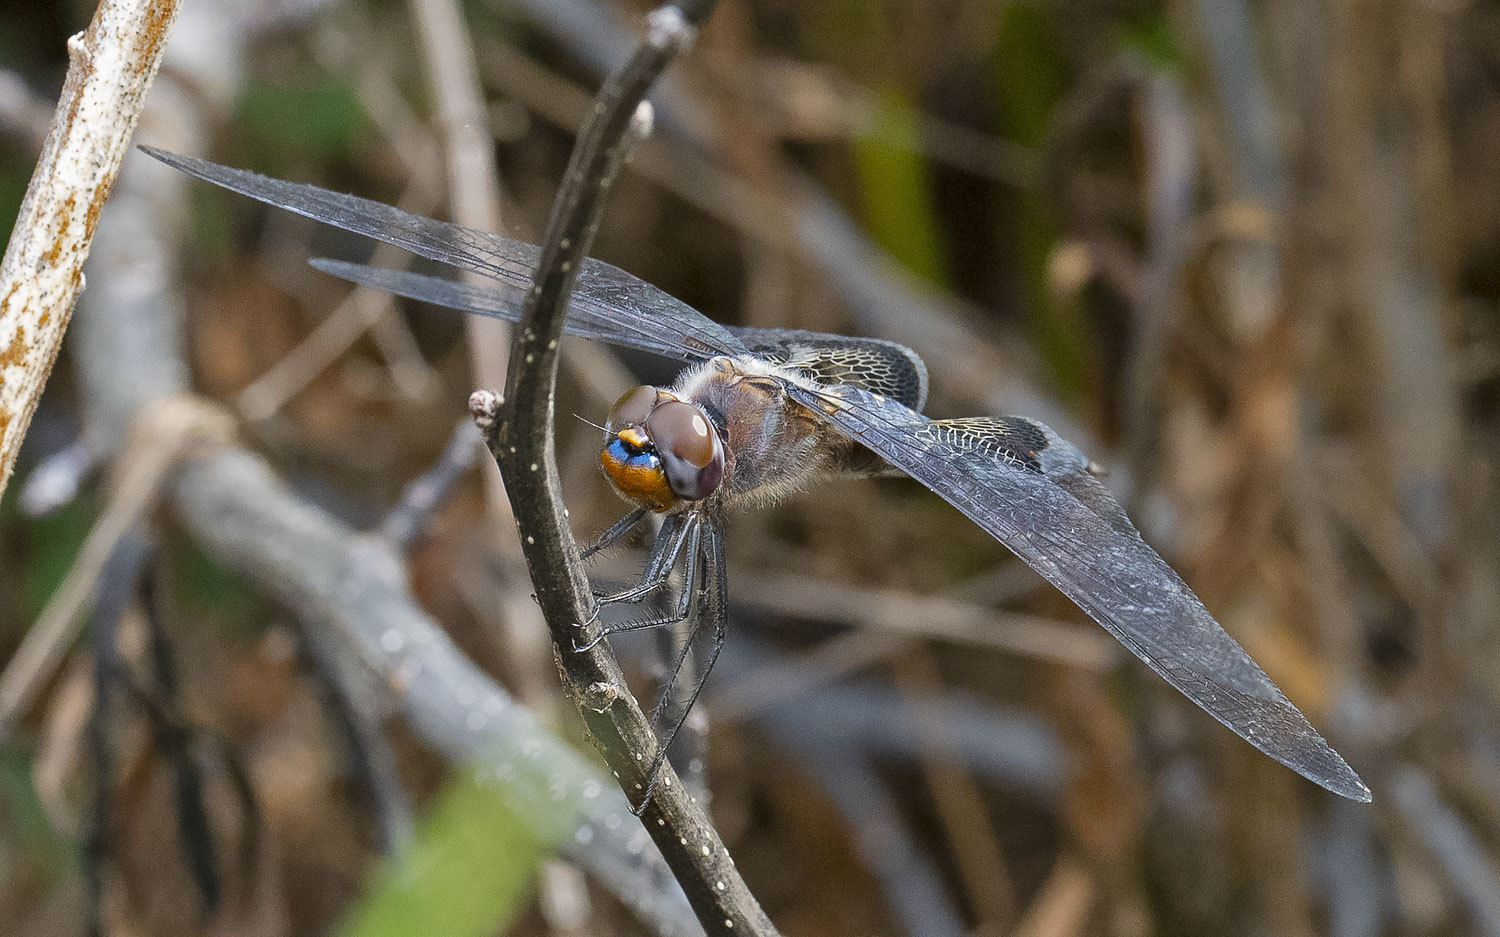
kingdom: Animalia
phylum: Arthropoda
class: Insecta
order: Odonata
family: Libellulidae
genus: Tramea
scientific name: Tramea lacerata
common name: Black saddlebags
